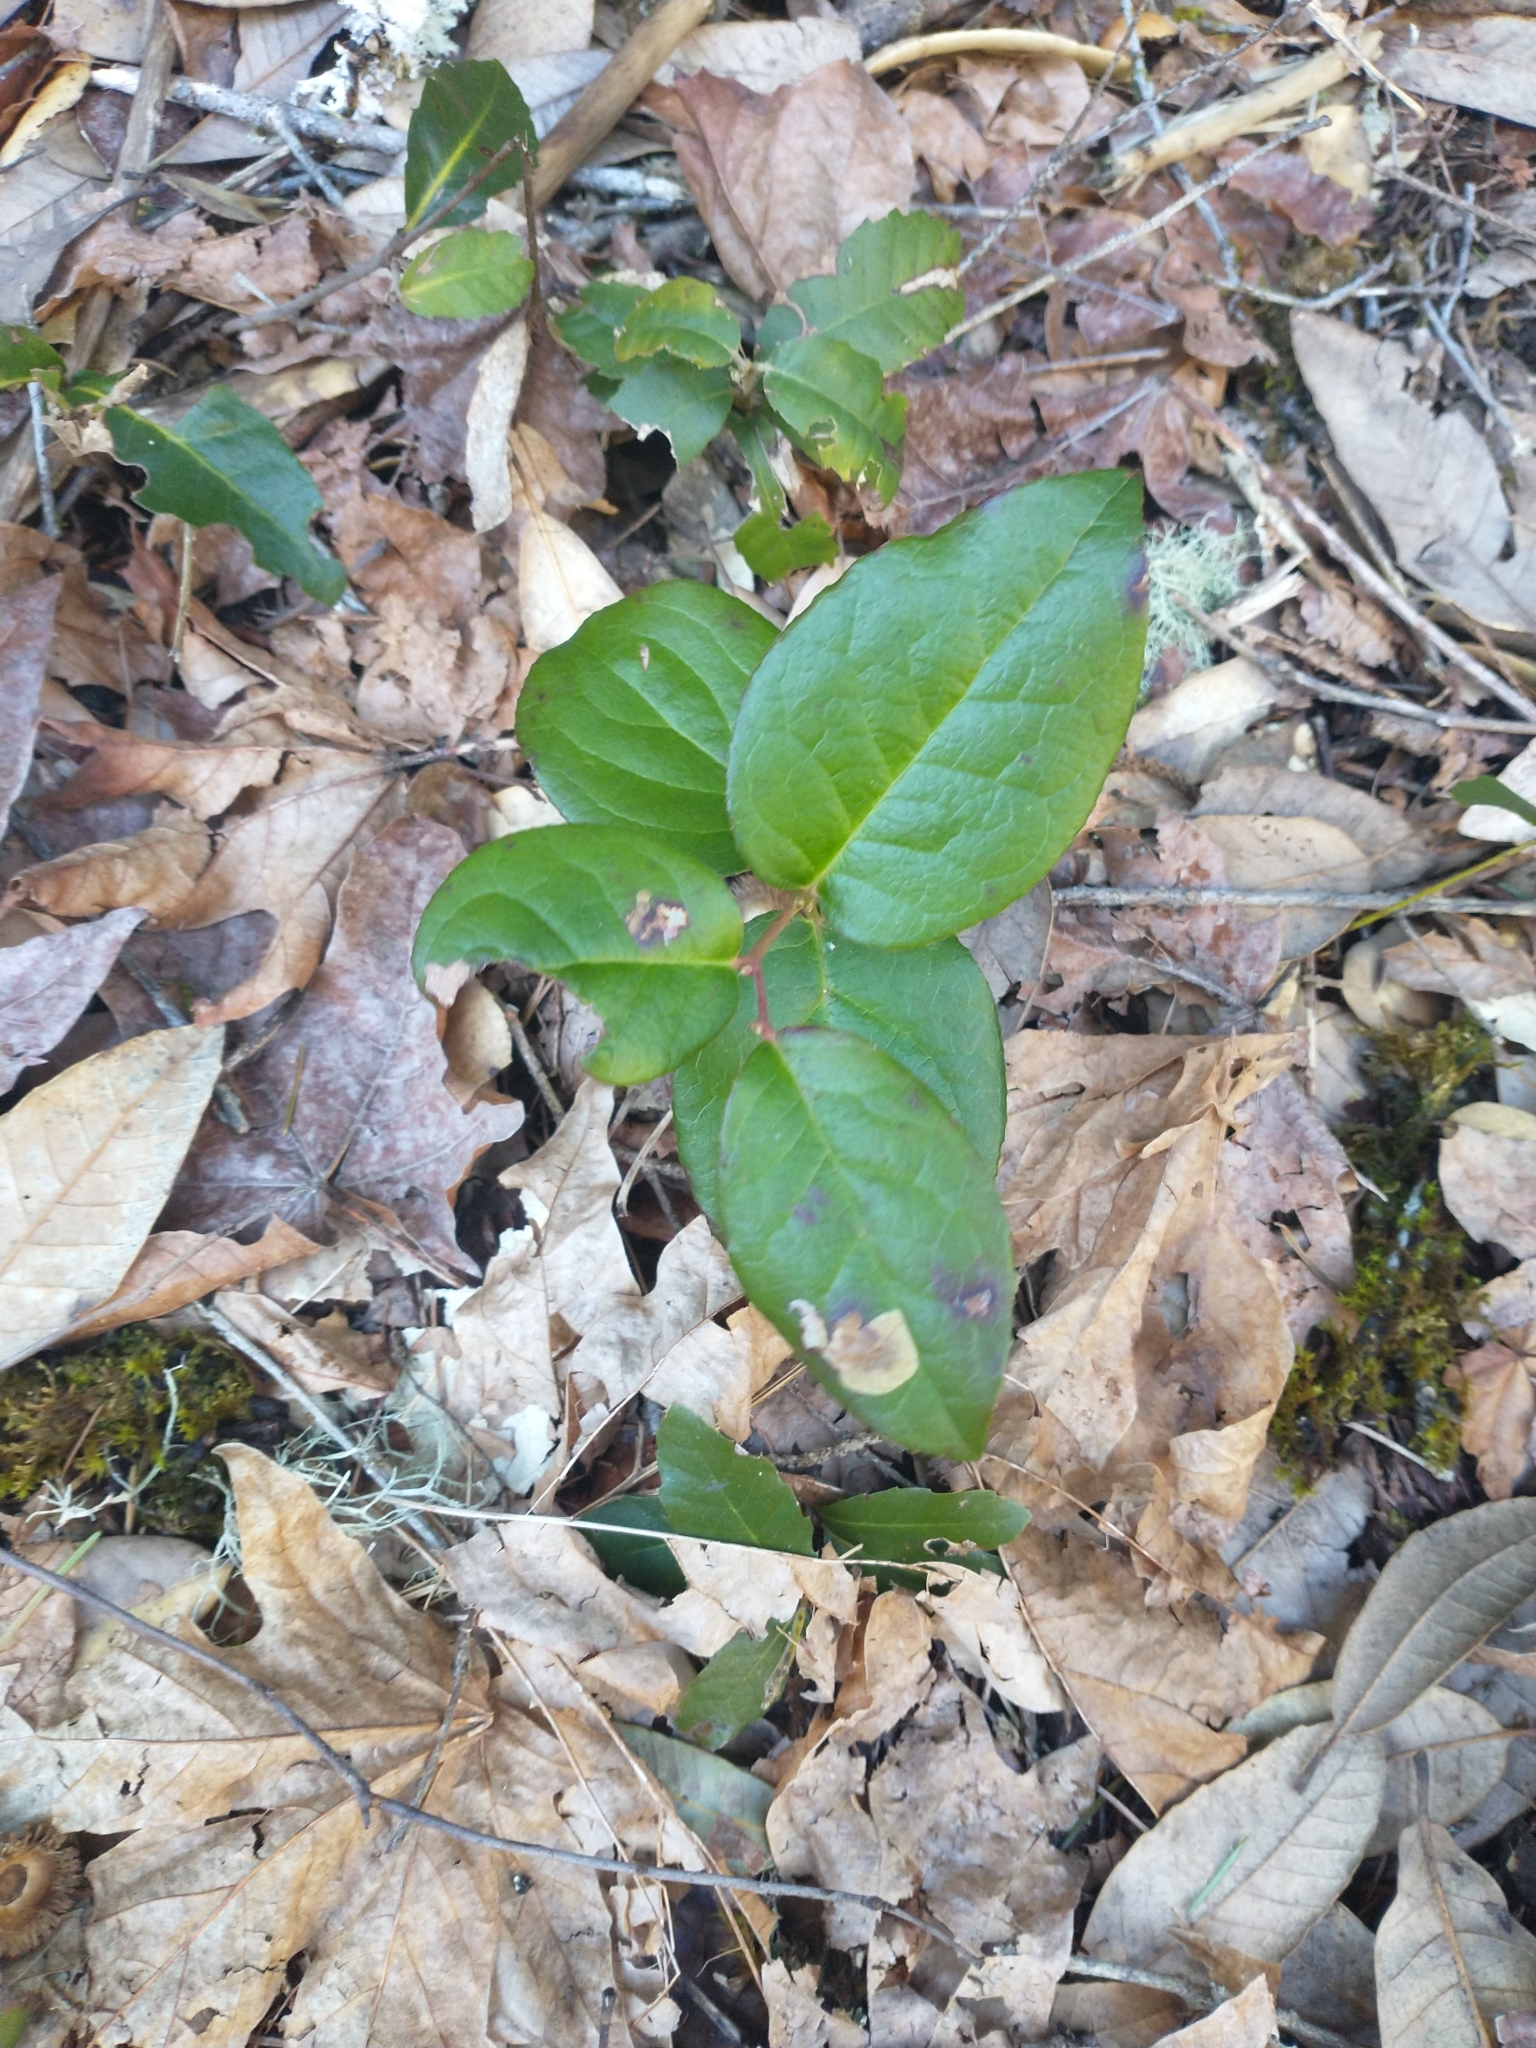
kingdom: Plantae
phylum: Tracheophyta
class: Magnoliopsida
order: Ericales
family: Ericaceae
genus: Gaultheria
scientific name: Gaultheria shallon
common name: Shallon
